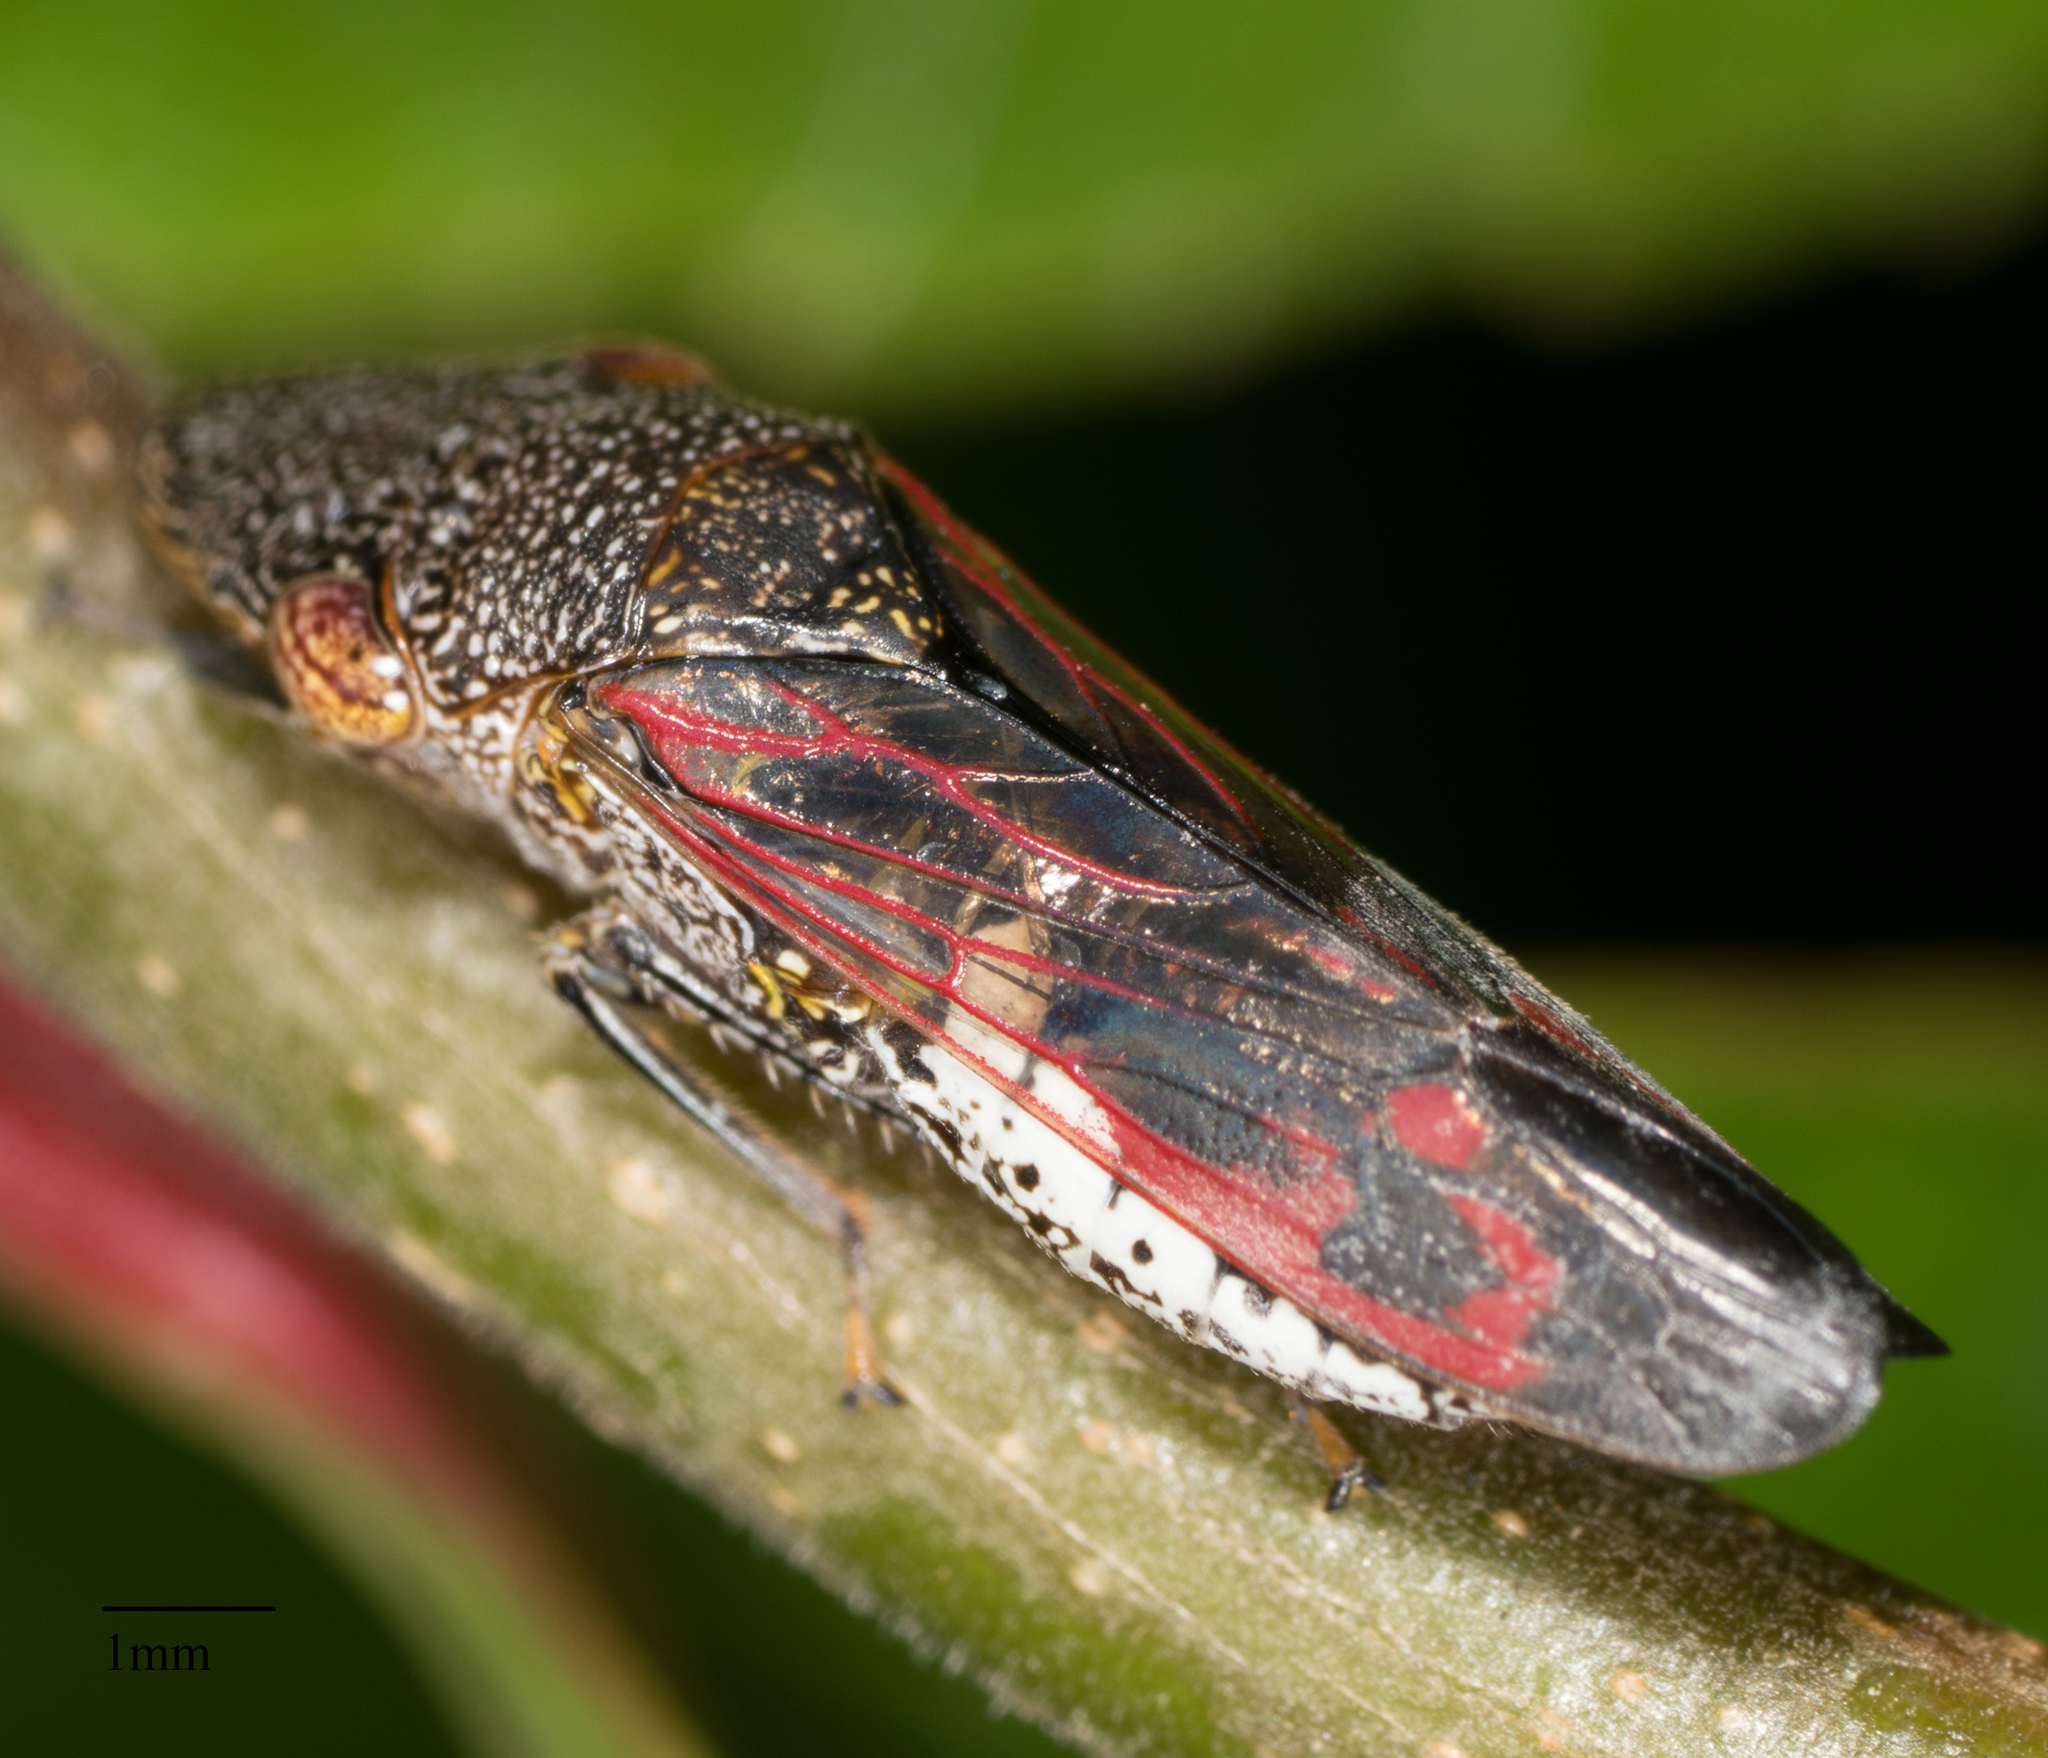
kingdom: Animalia
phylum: Arthropoda
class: Insecta
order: Hemiptera
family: Cicadellidae
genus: Homalodisca
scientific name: Homalodisca vitripennis
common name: Glassy-winged sharpshooter
